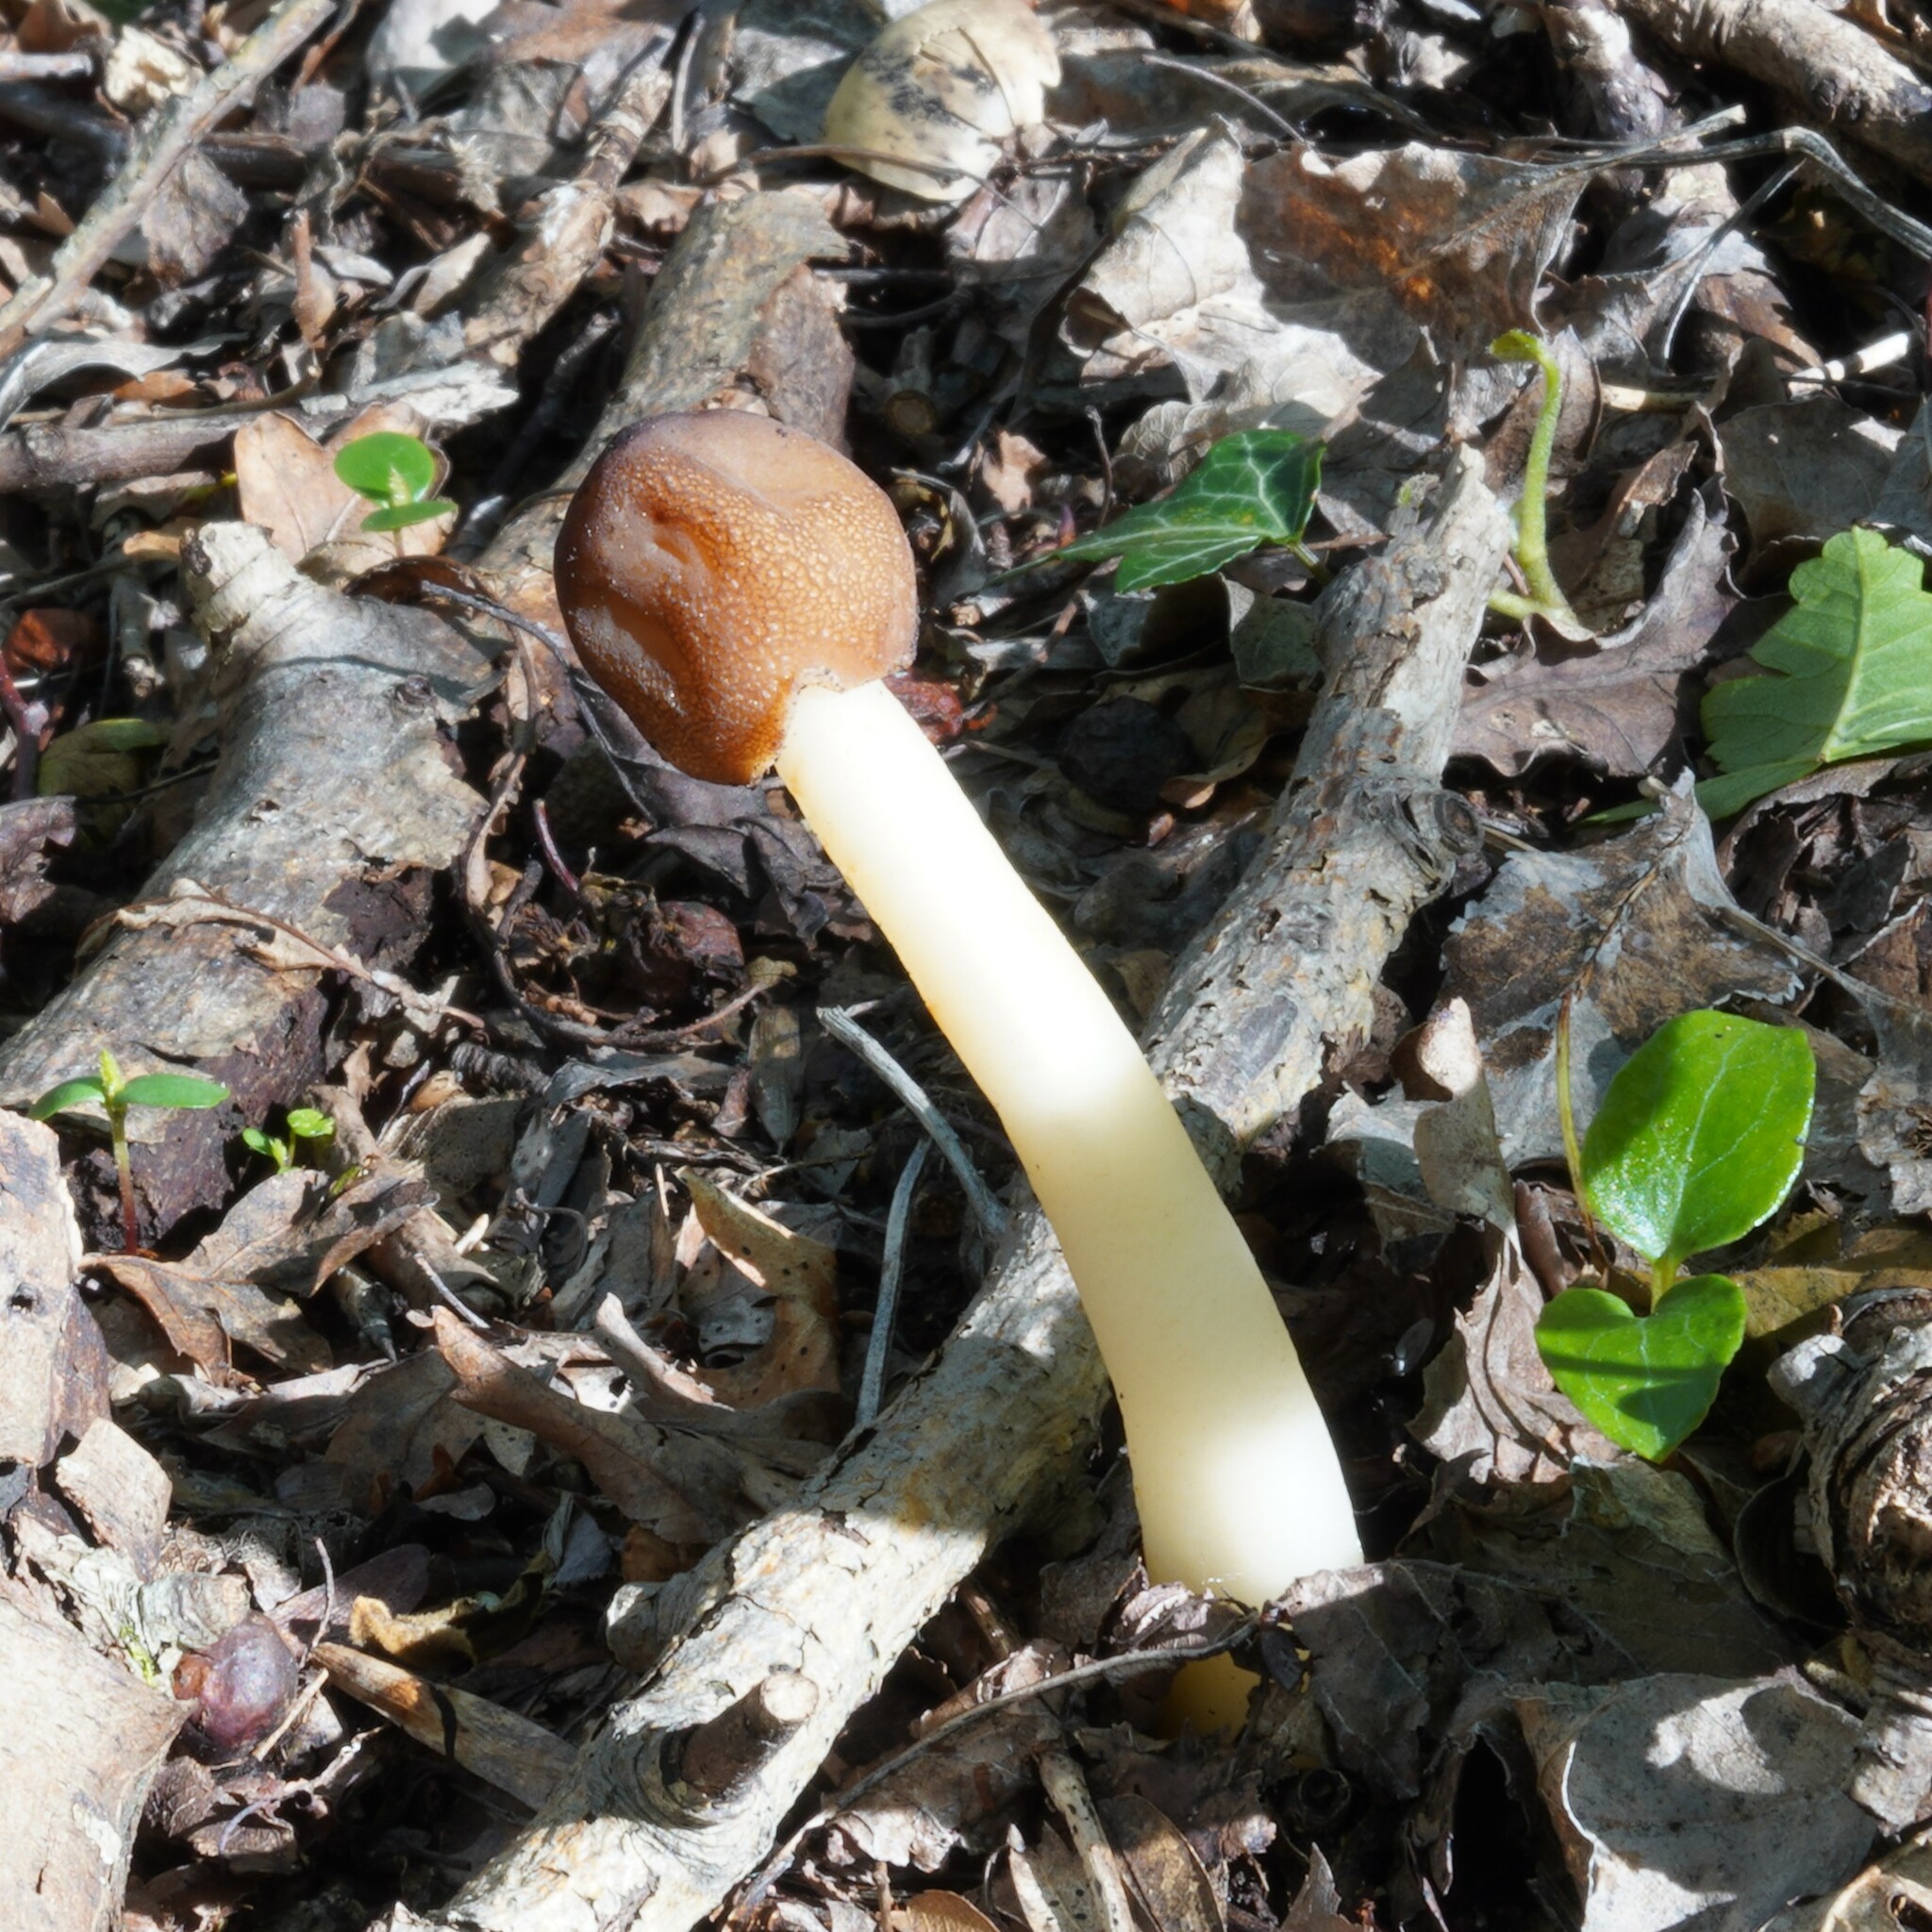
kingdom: Fungi
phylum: Ascomycota
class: Pezizomycetes
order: Pezizales
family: Morchellaceae
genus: Verpa
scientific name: Verpa conica
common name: Thimble morel
